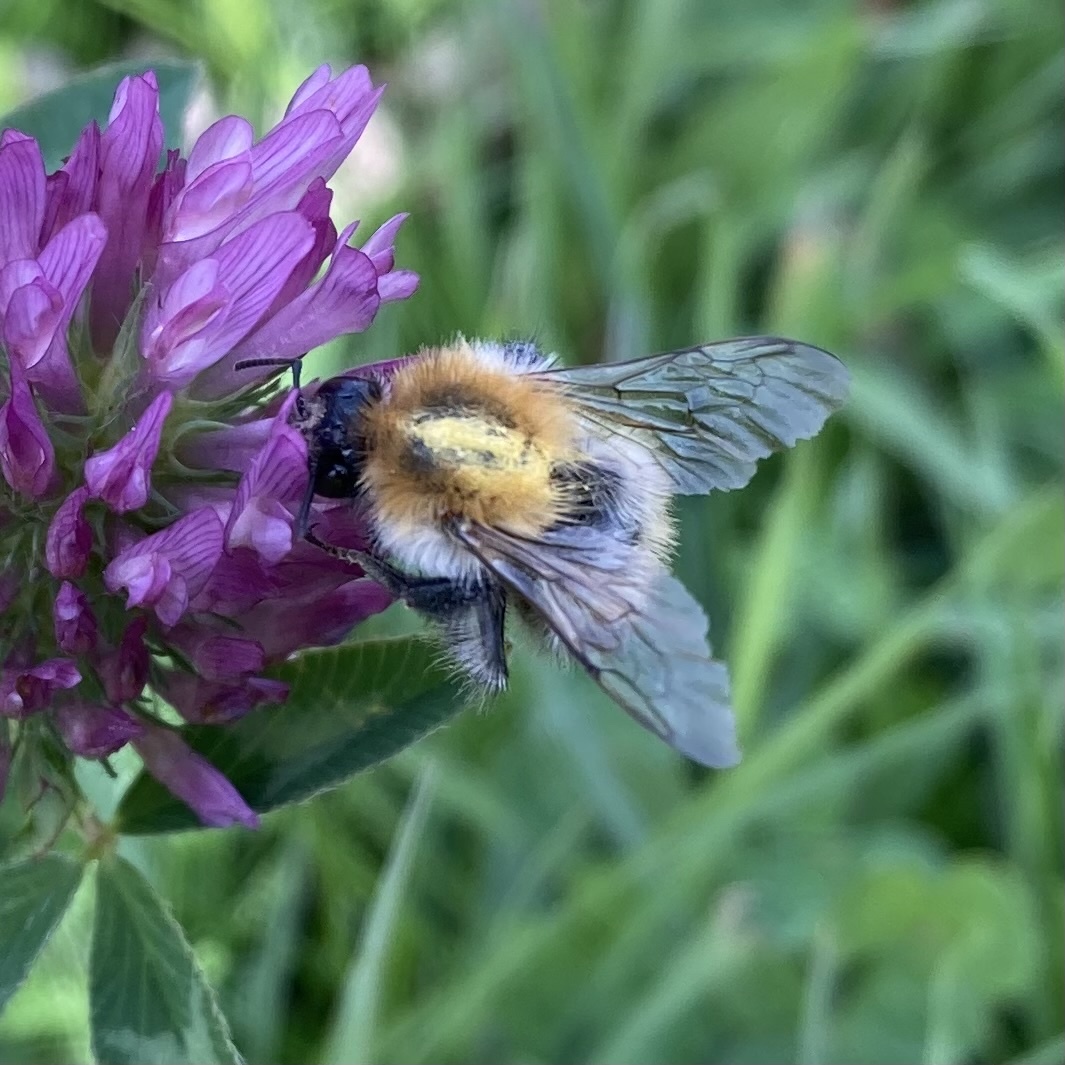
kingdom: Animalia
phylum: Arthropoda
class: Insecta
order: Hymenoptera
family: Apidae
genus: Bombus
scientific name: Bombus pascuorum
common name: Common carder bee
